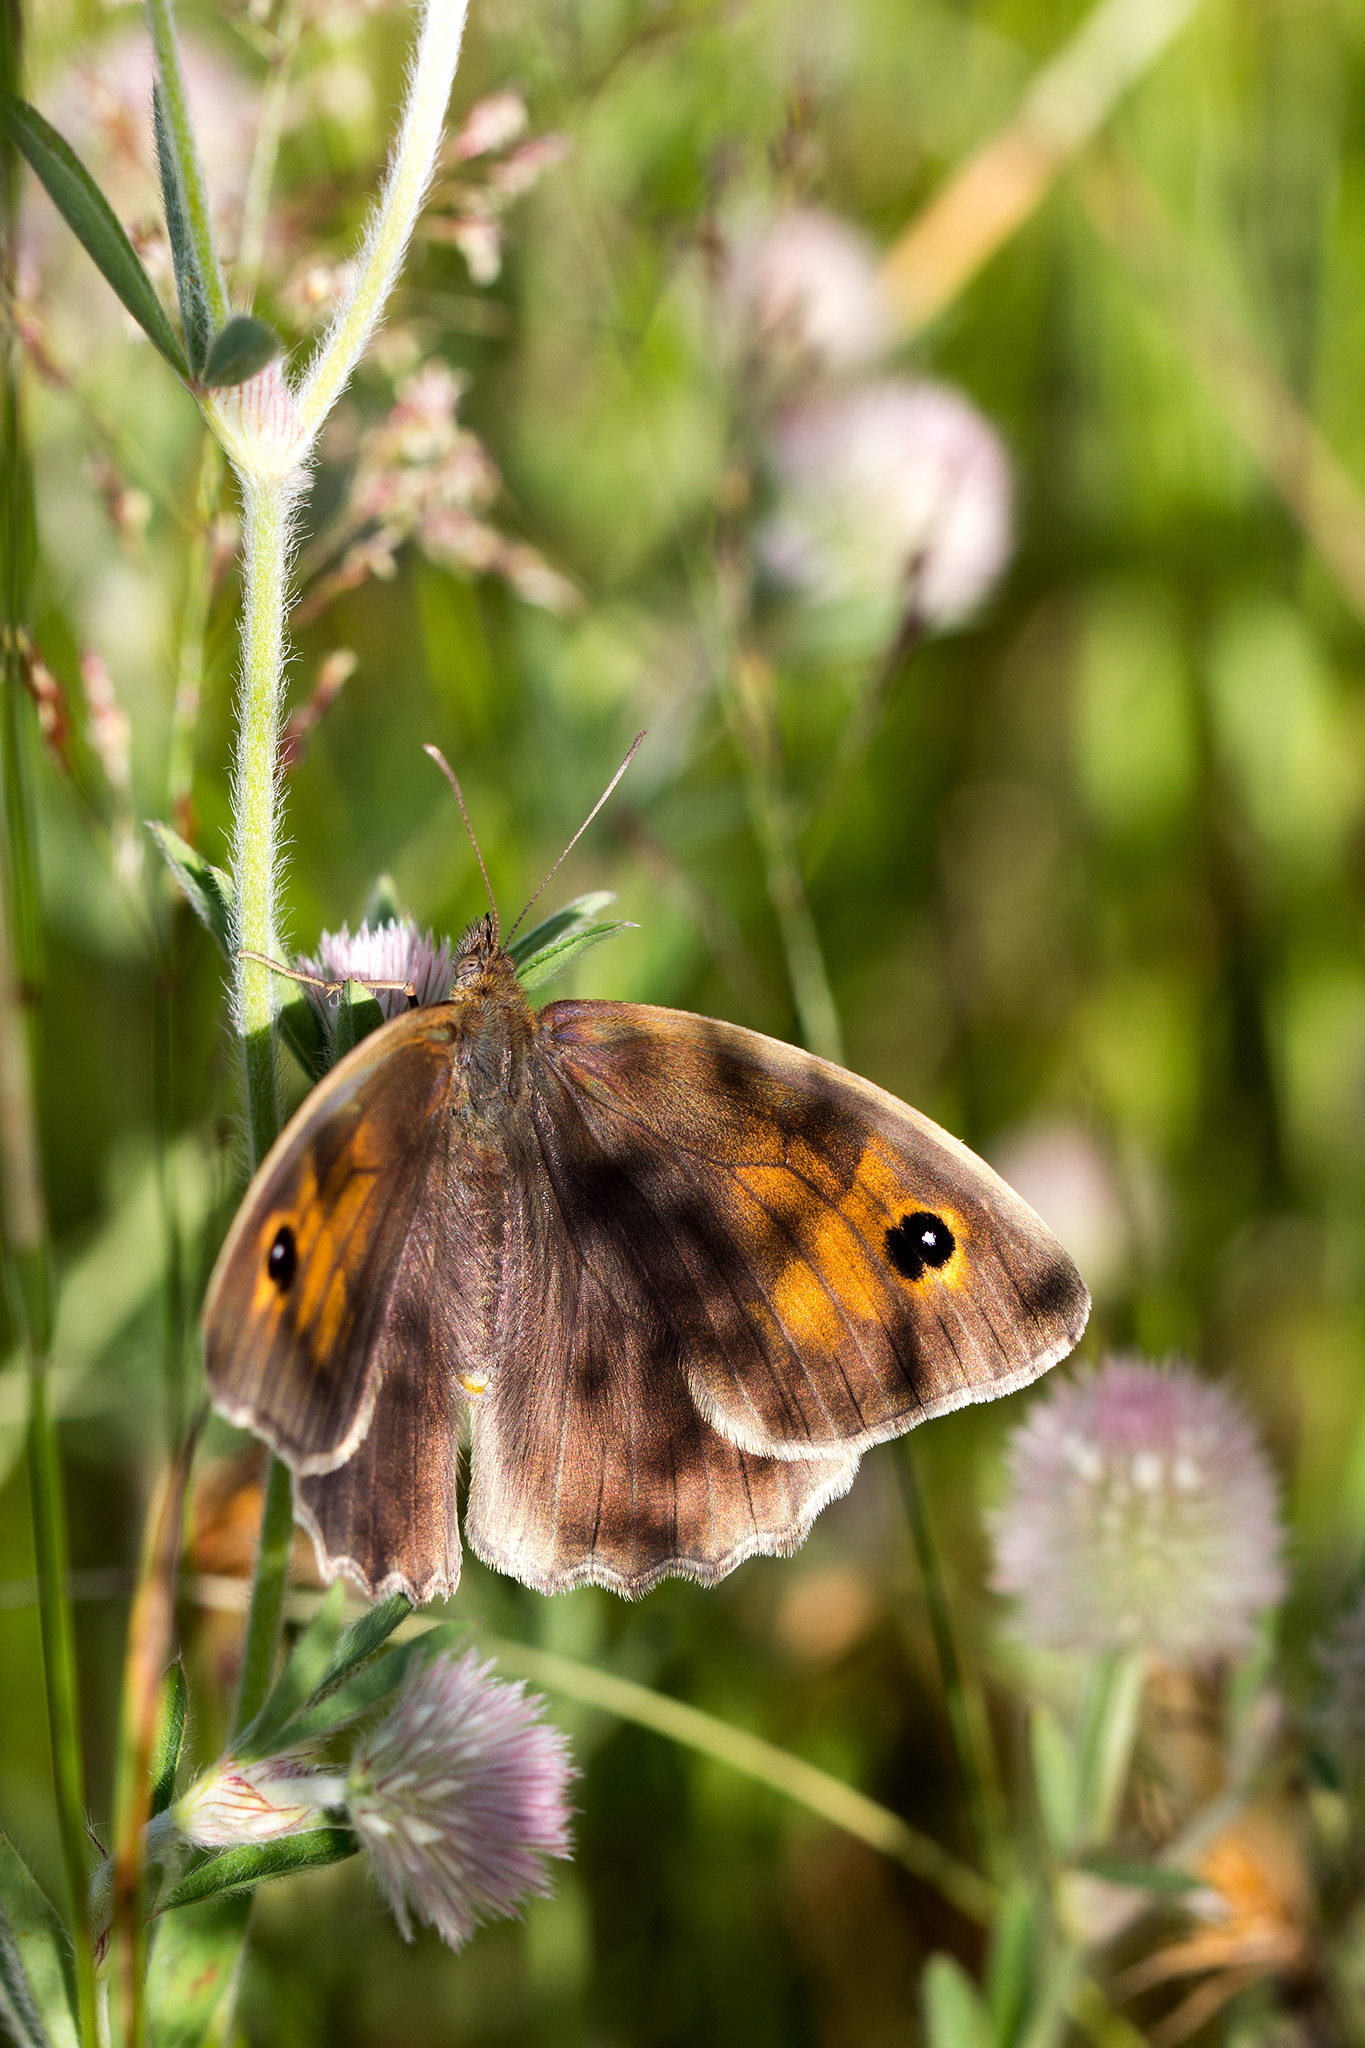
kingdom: Animalia
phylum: Arthropoda
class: Insecta
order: Lepidoptera
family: Nymphalidae
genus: Maniola
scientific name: Maniola jurtina
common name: Meadow brown
